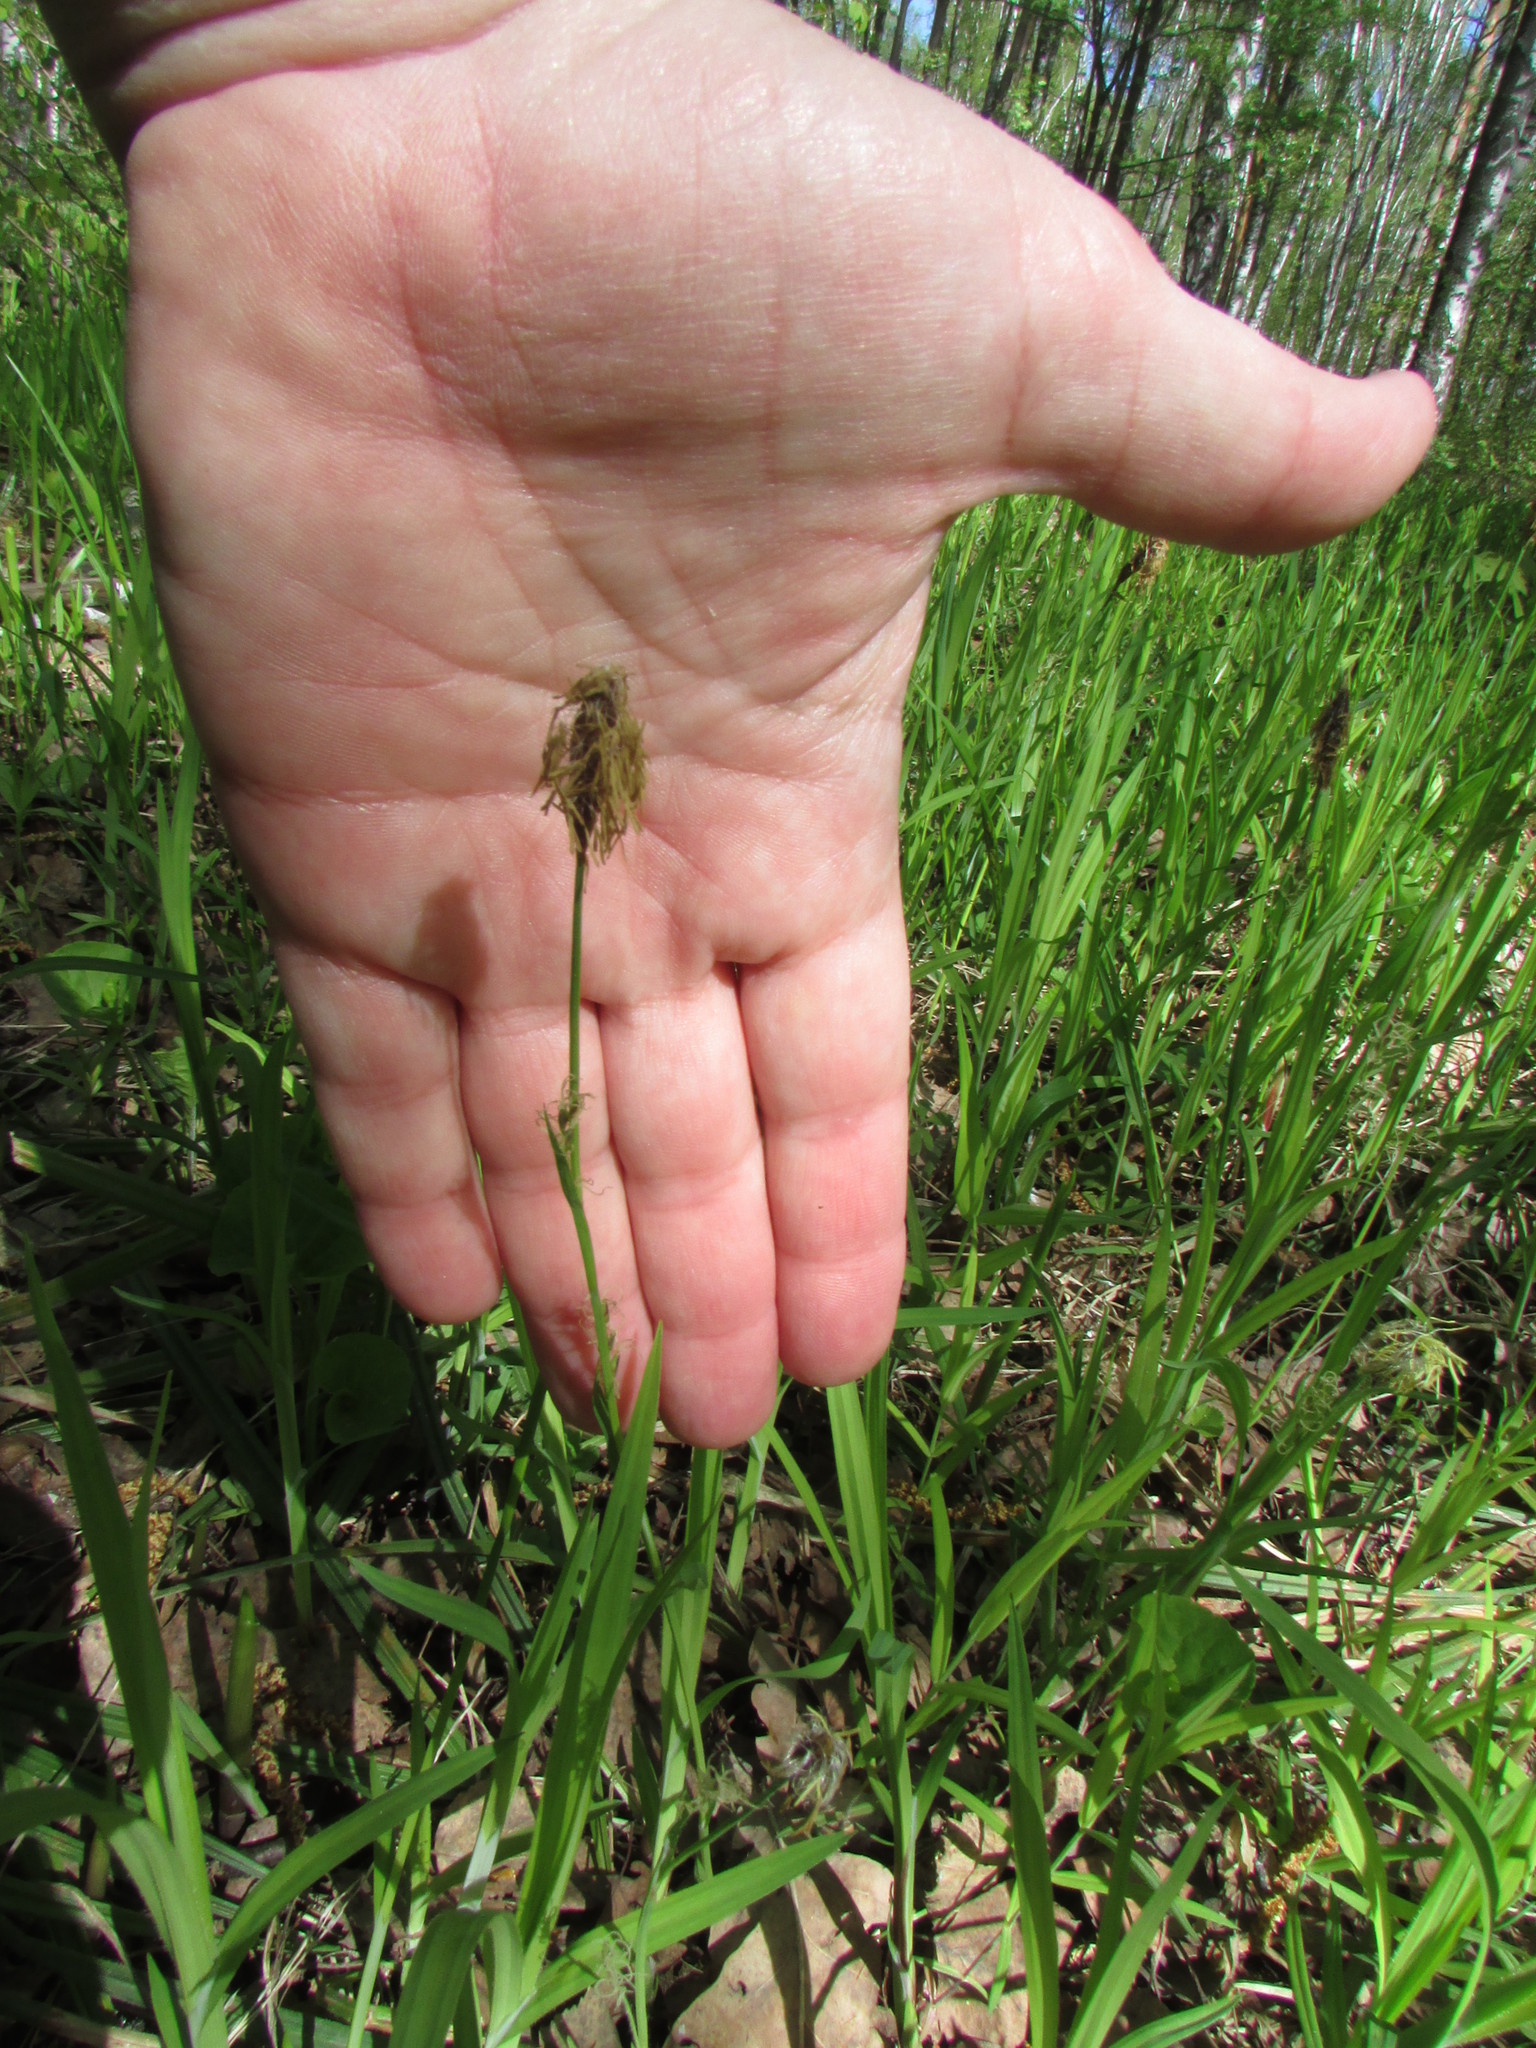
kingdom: Plantae
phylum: Tracheophyta
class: Liliopsida
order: Poales
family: Cyperaceae
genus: Carex
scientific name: Carex pilosa
